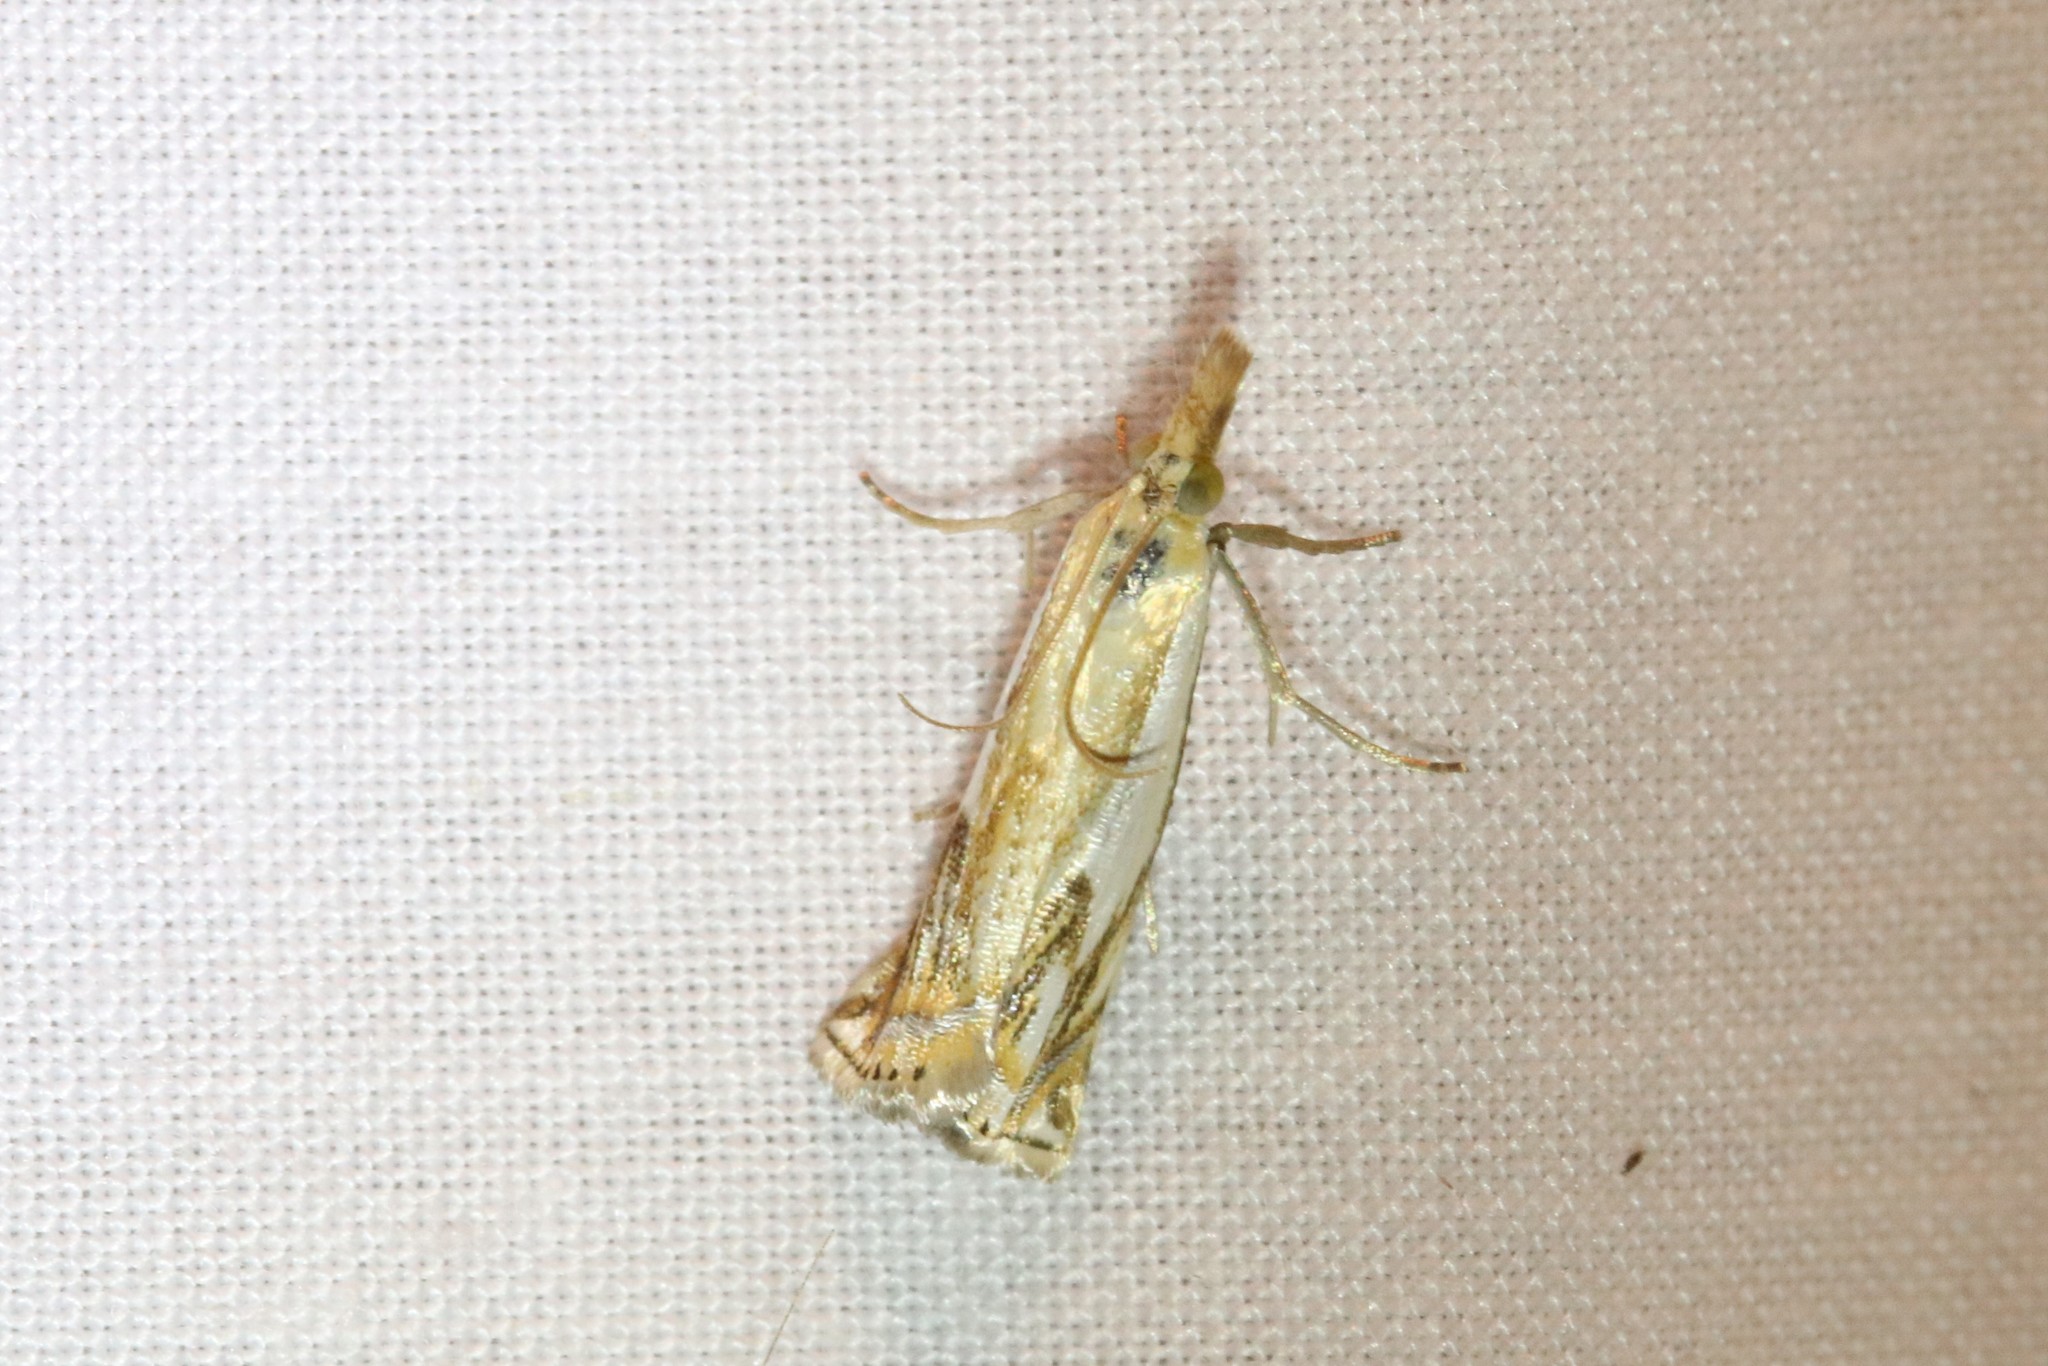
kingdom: Animalia
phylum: Arthropoda
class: Insecta
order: Lepidoptera
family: Crambidae
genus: Crambus
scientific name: Crambus agitatellus
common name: Double-banded grass-veneer
